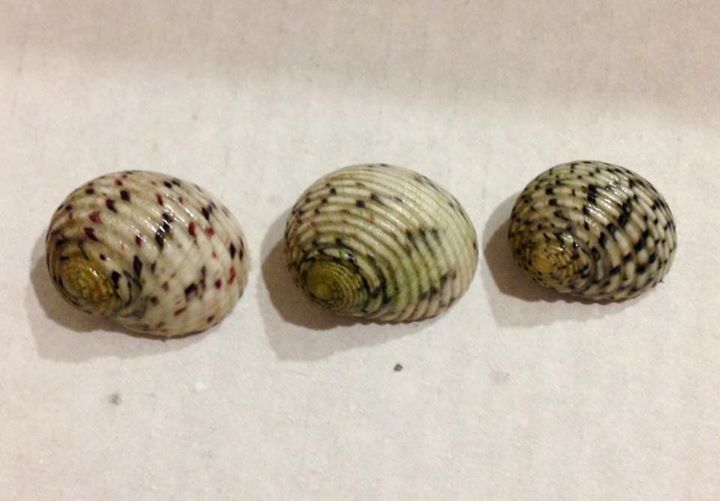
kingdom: Animalia
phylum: Mollusca
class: Gastropoda
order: Cycloneritida
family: Neritidae
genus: Nerita
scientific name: Nerita versicolor
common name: Four-tooth nerite
